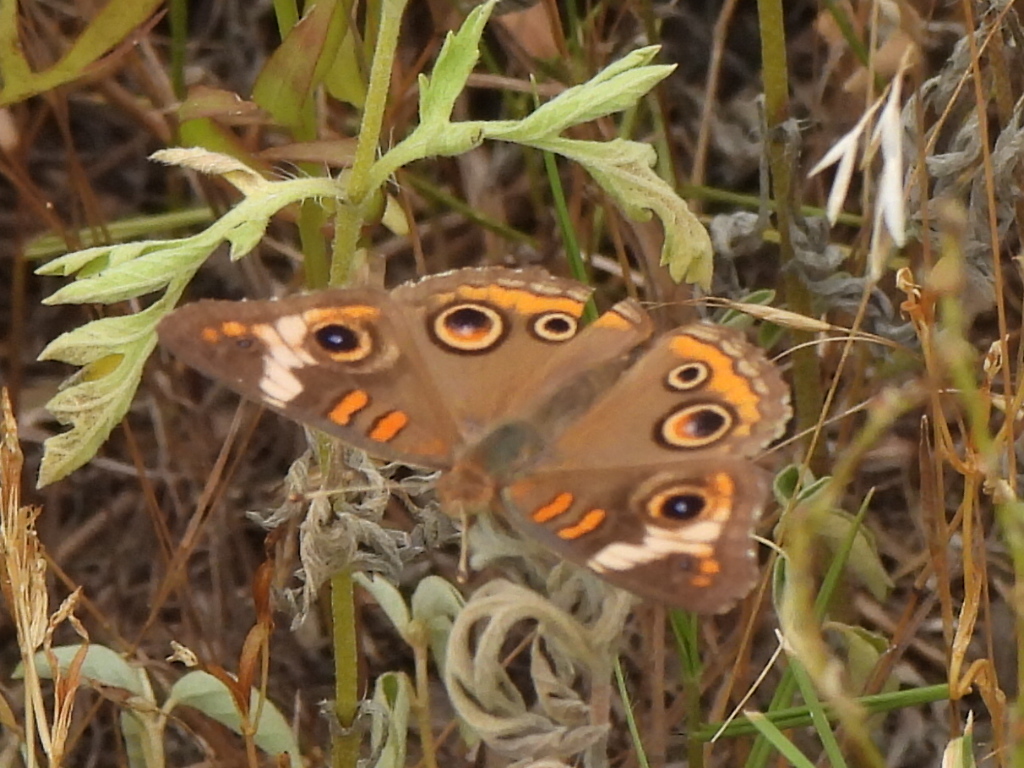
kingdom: Animalia
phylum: Arthropoda
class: Insecta
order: Lepidoptera
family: Nymphalidae
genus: Junonia
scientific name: Junonia coenia
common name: Common buckeye
